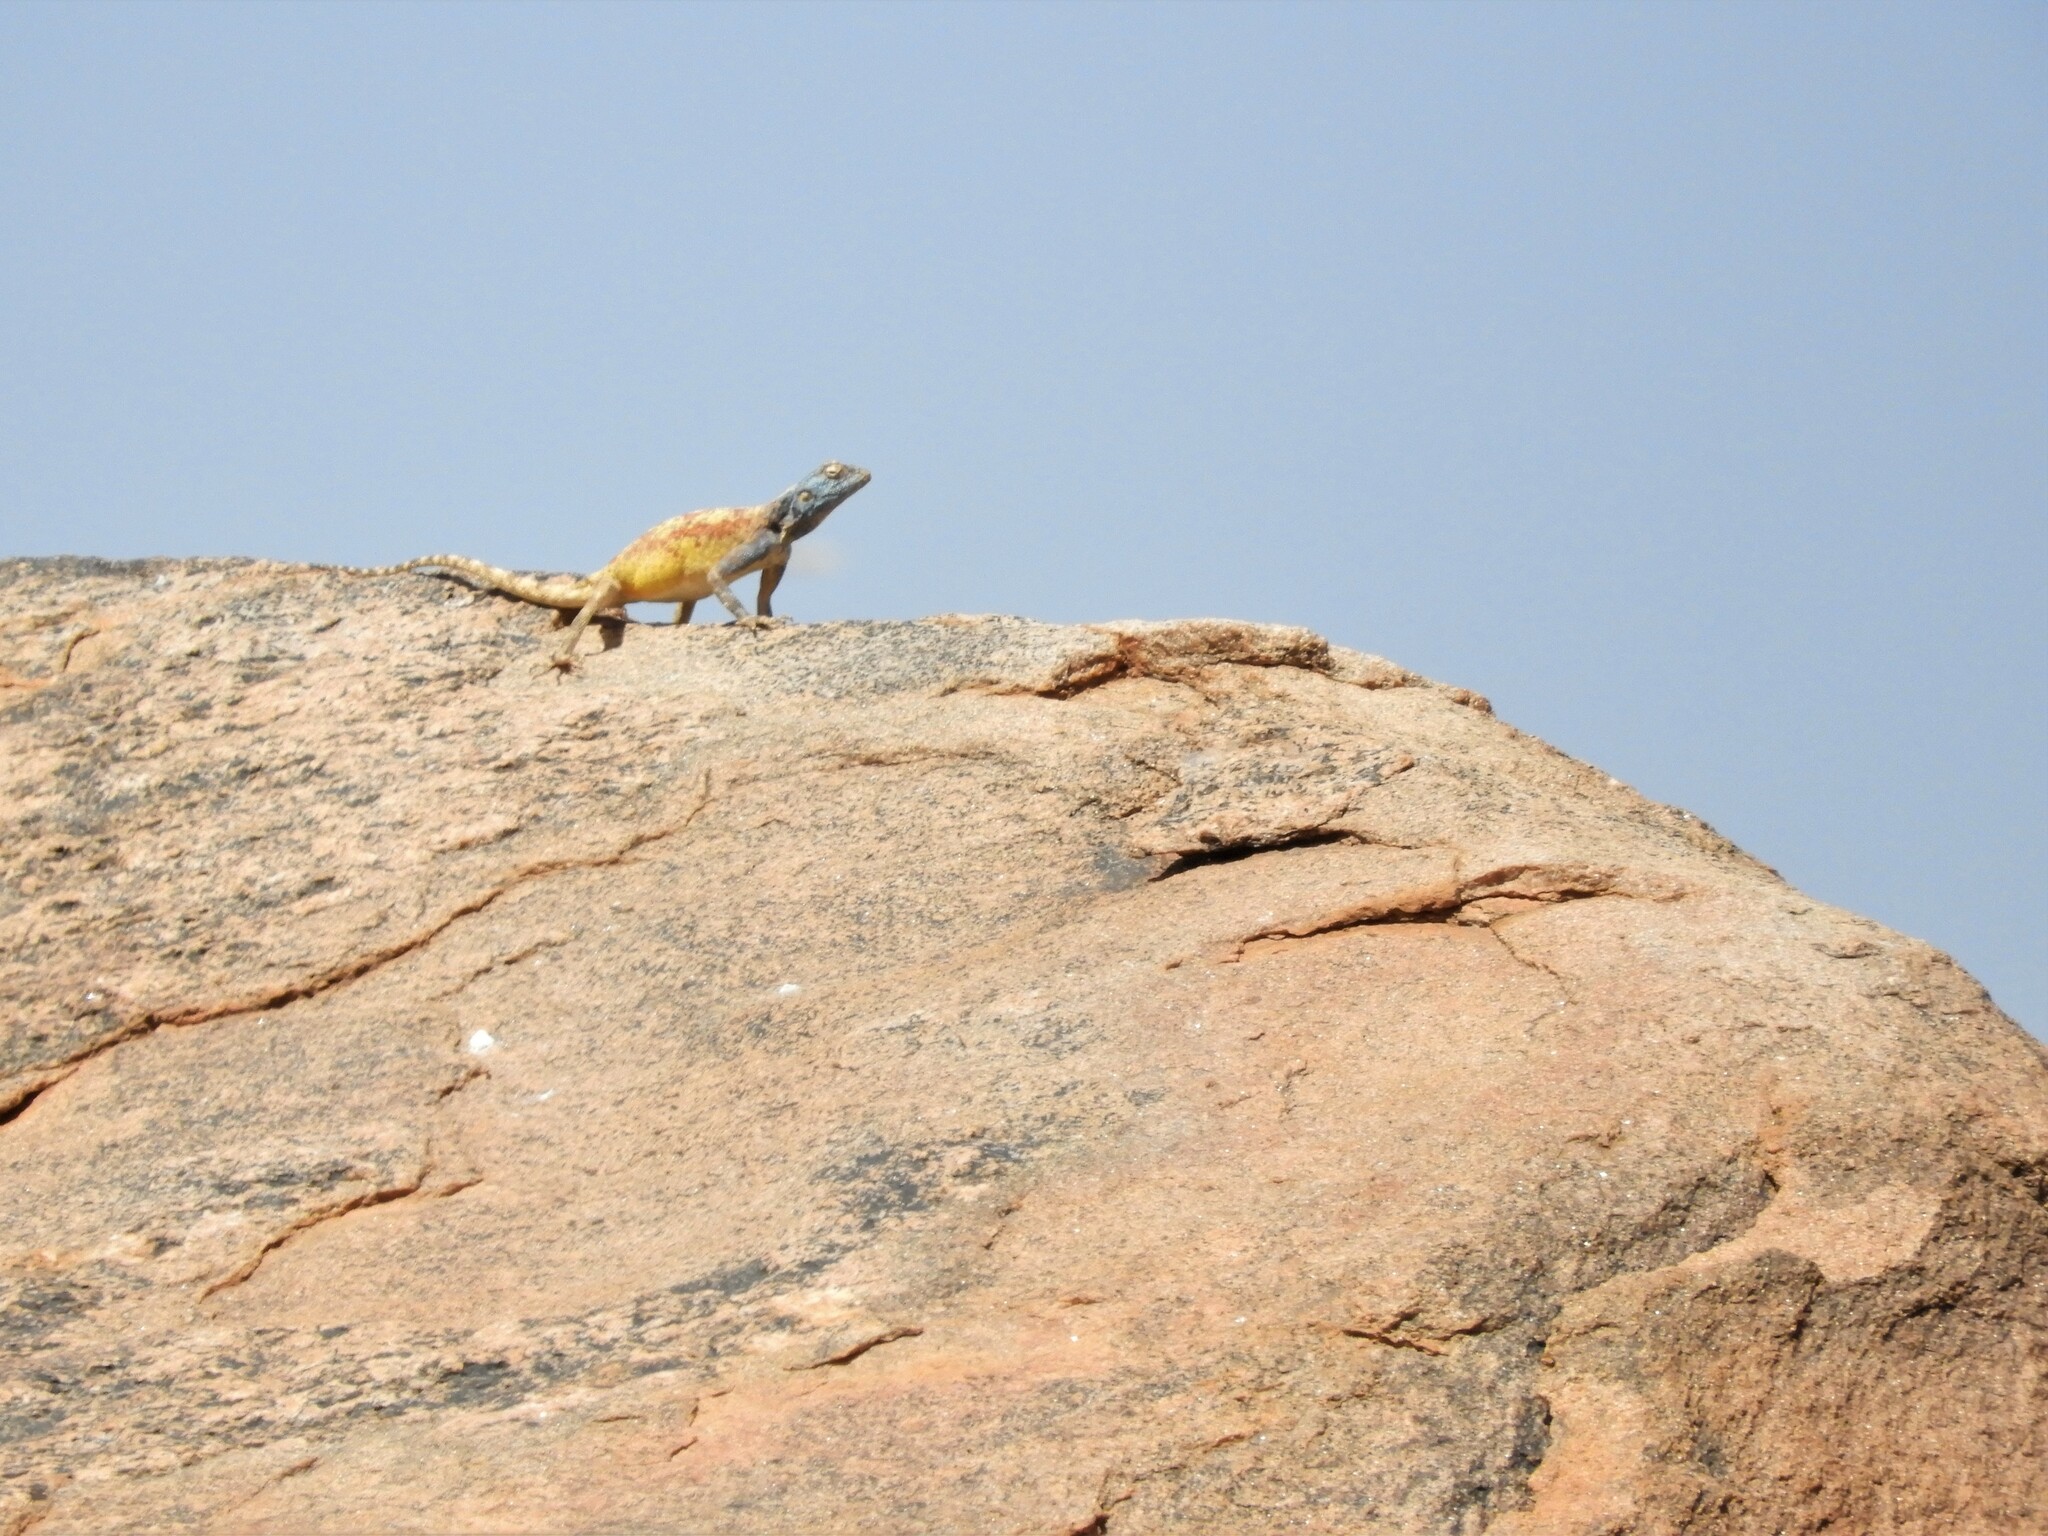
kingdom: Animalia
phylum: Chordata
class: Squamata
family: Agamidae
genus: Agama
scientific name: Agama atra
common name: Southern african rock agama
